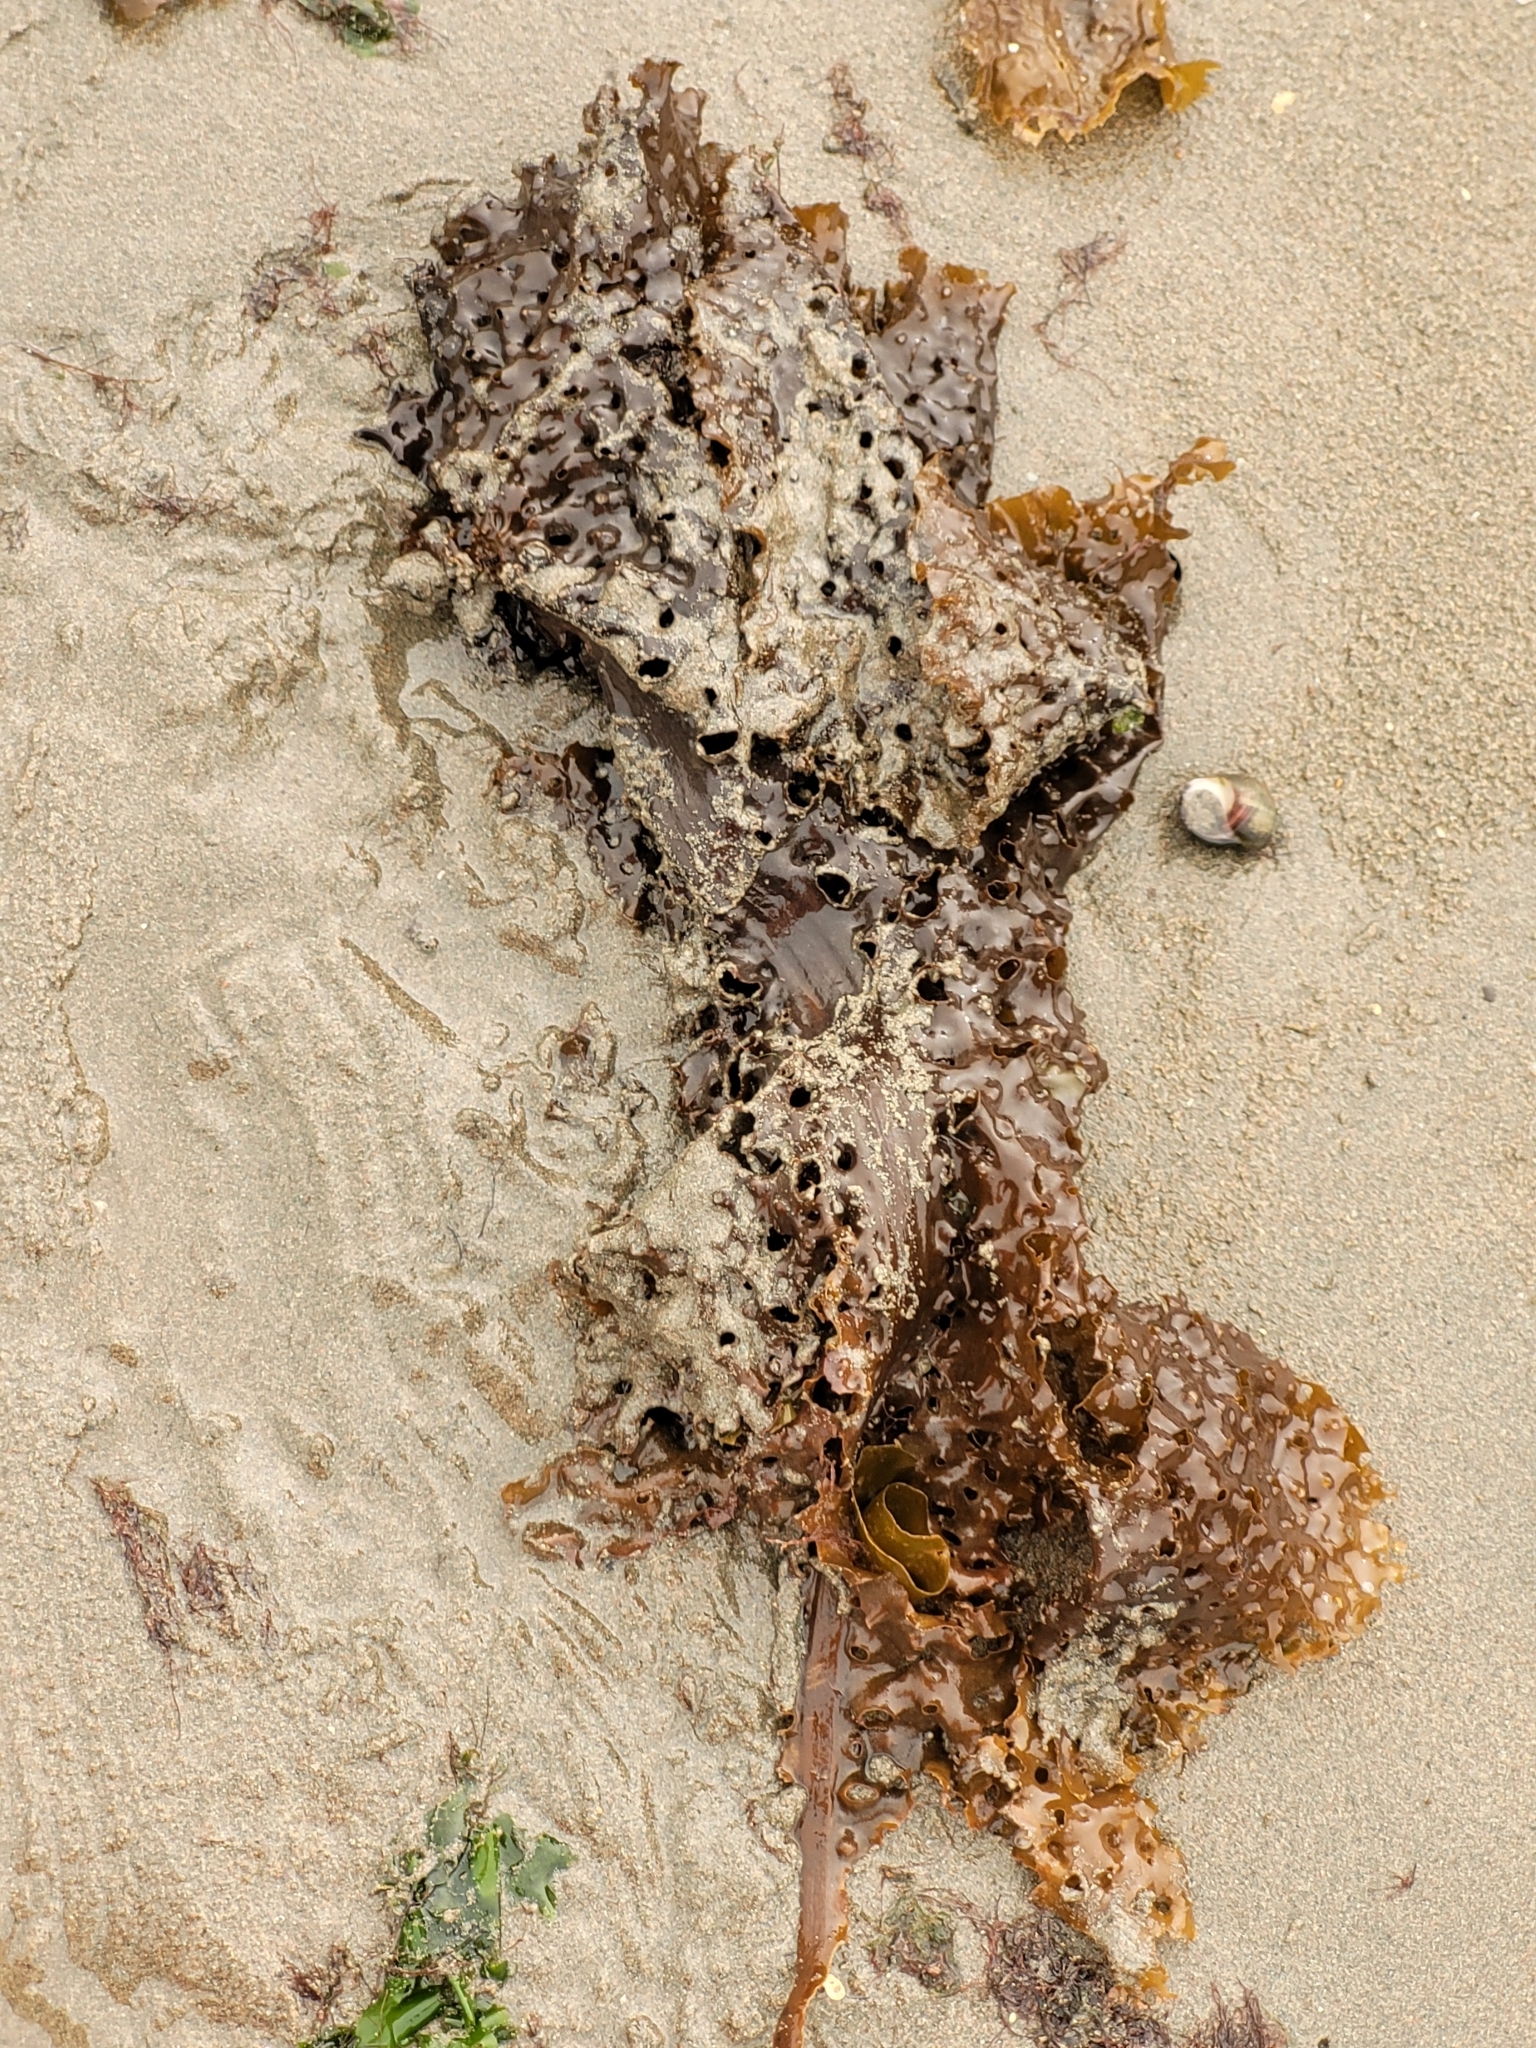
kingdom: Chromista
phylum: Ochrophyta
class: Phaeophyceae
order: Laminariales
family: Costariaceae
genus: Agarum
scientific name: Agarum clathratum
